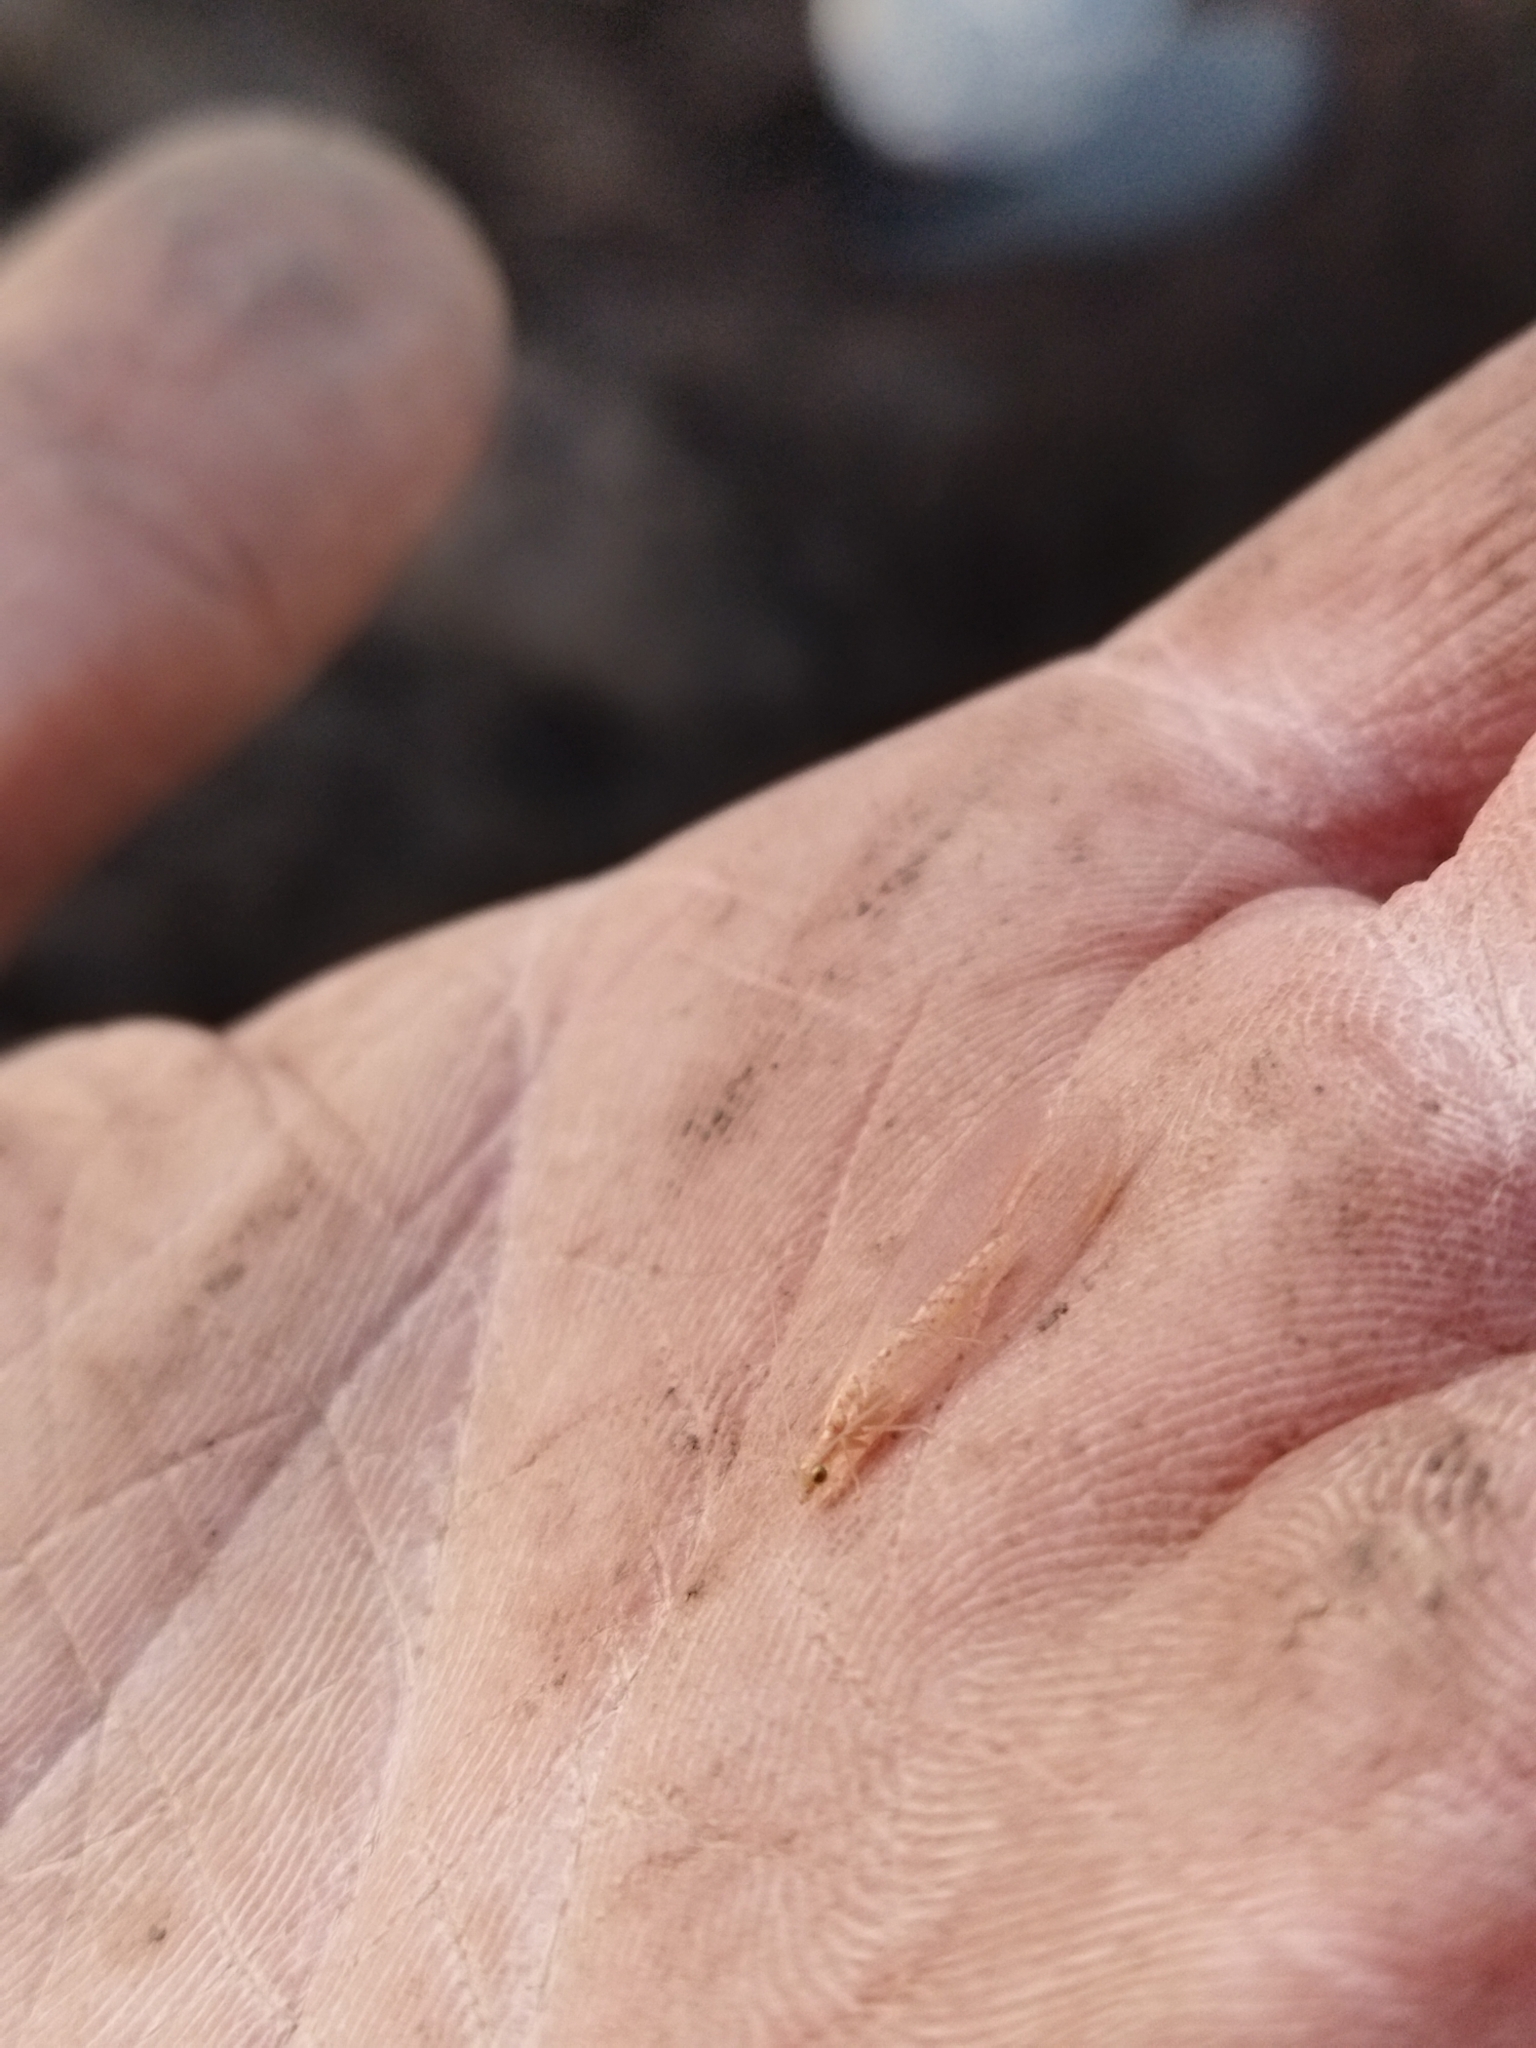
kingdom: Animalia
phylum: Arthropoda
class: Insecta
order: Neuroptera
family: Chrysopidae
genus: Chrysoperla
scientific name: Chrysoperla
